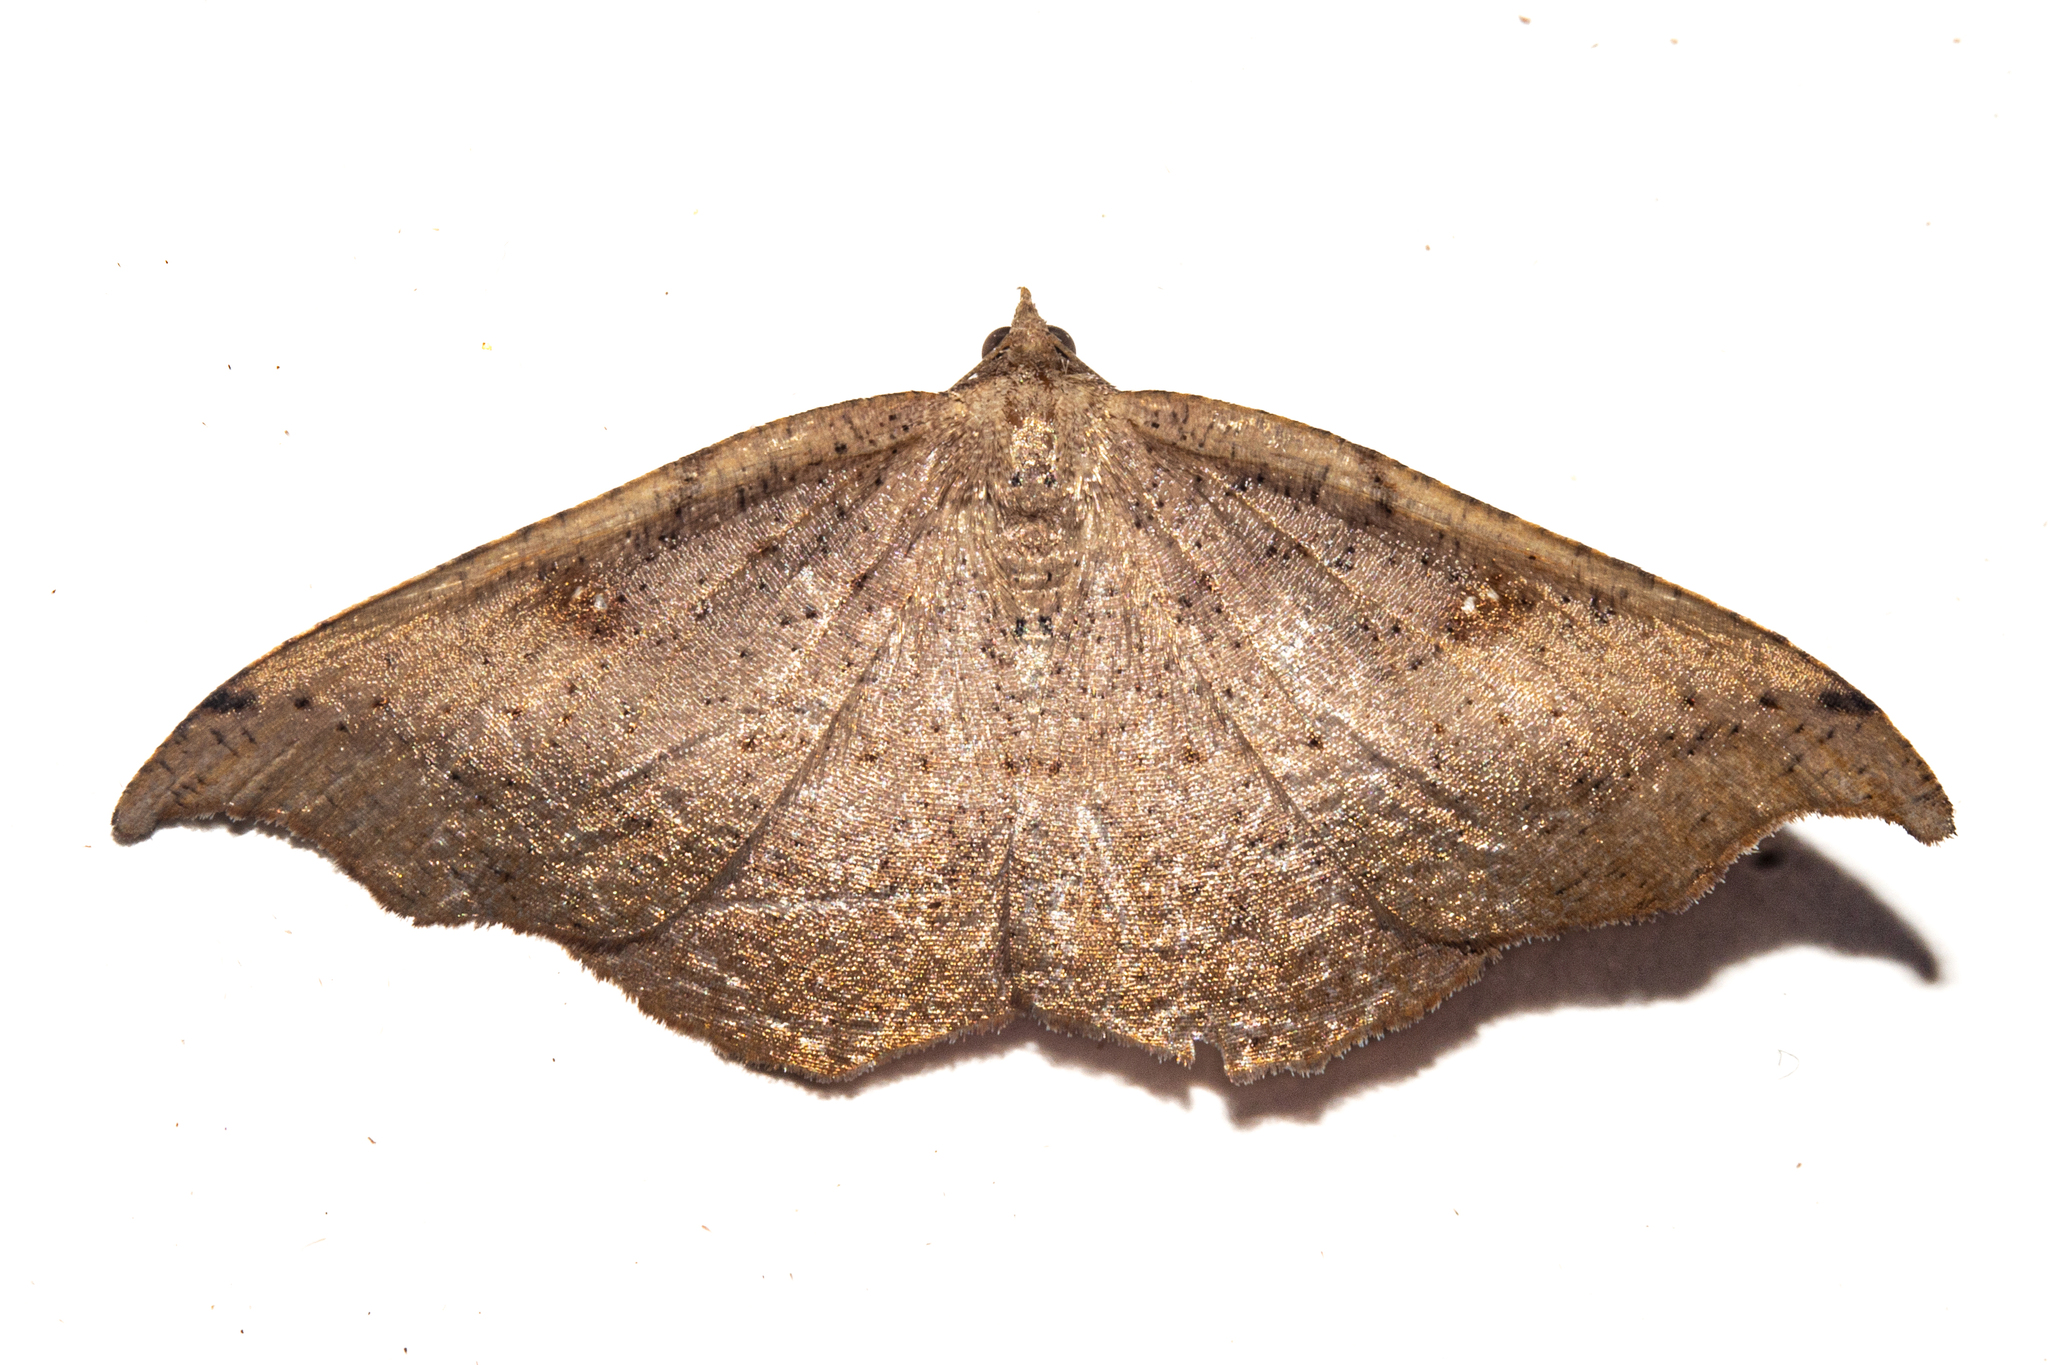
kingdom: Animalia
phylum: Arthropoda
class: Insecta
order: Lepidoptera
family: Geometridae
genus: Sarisa
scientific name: Sarisa muriferata
